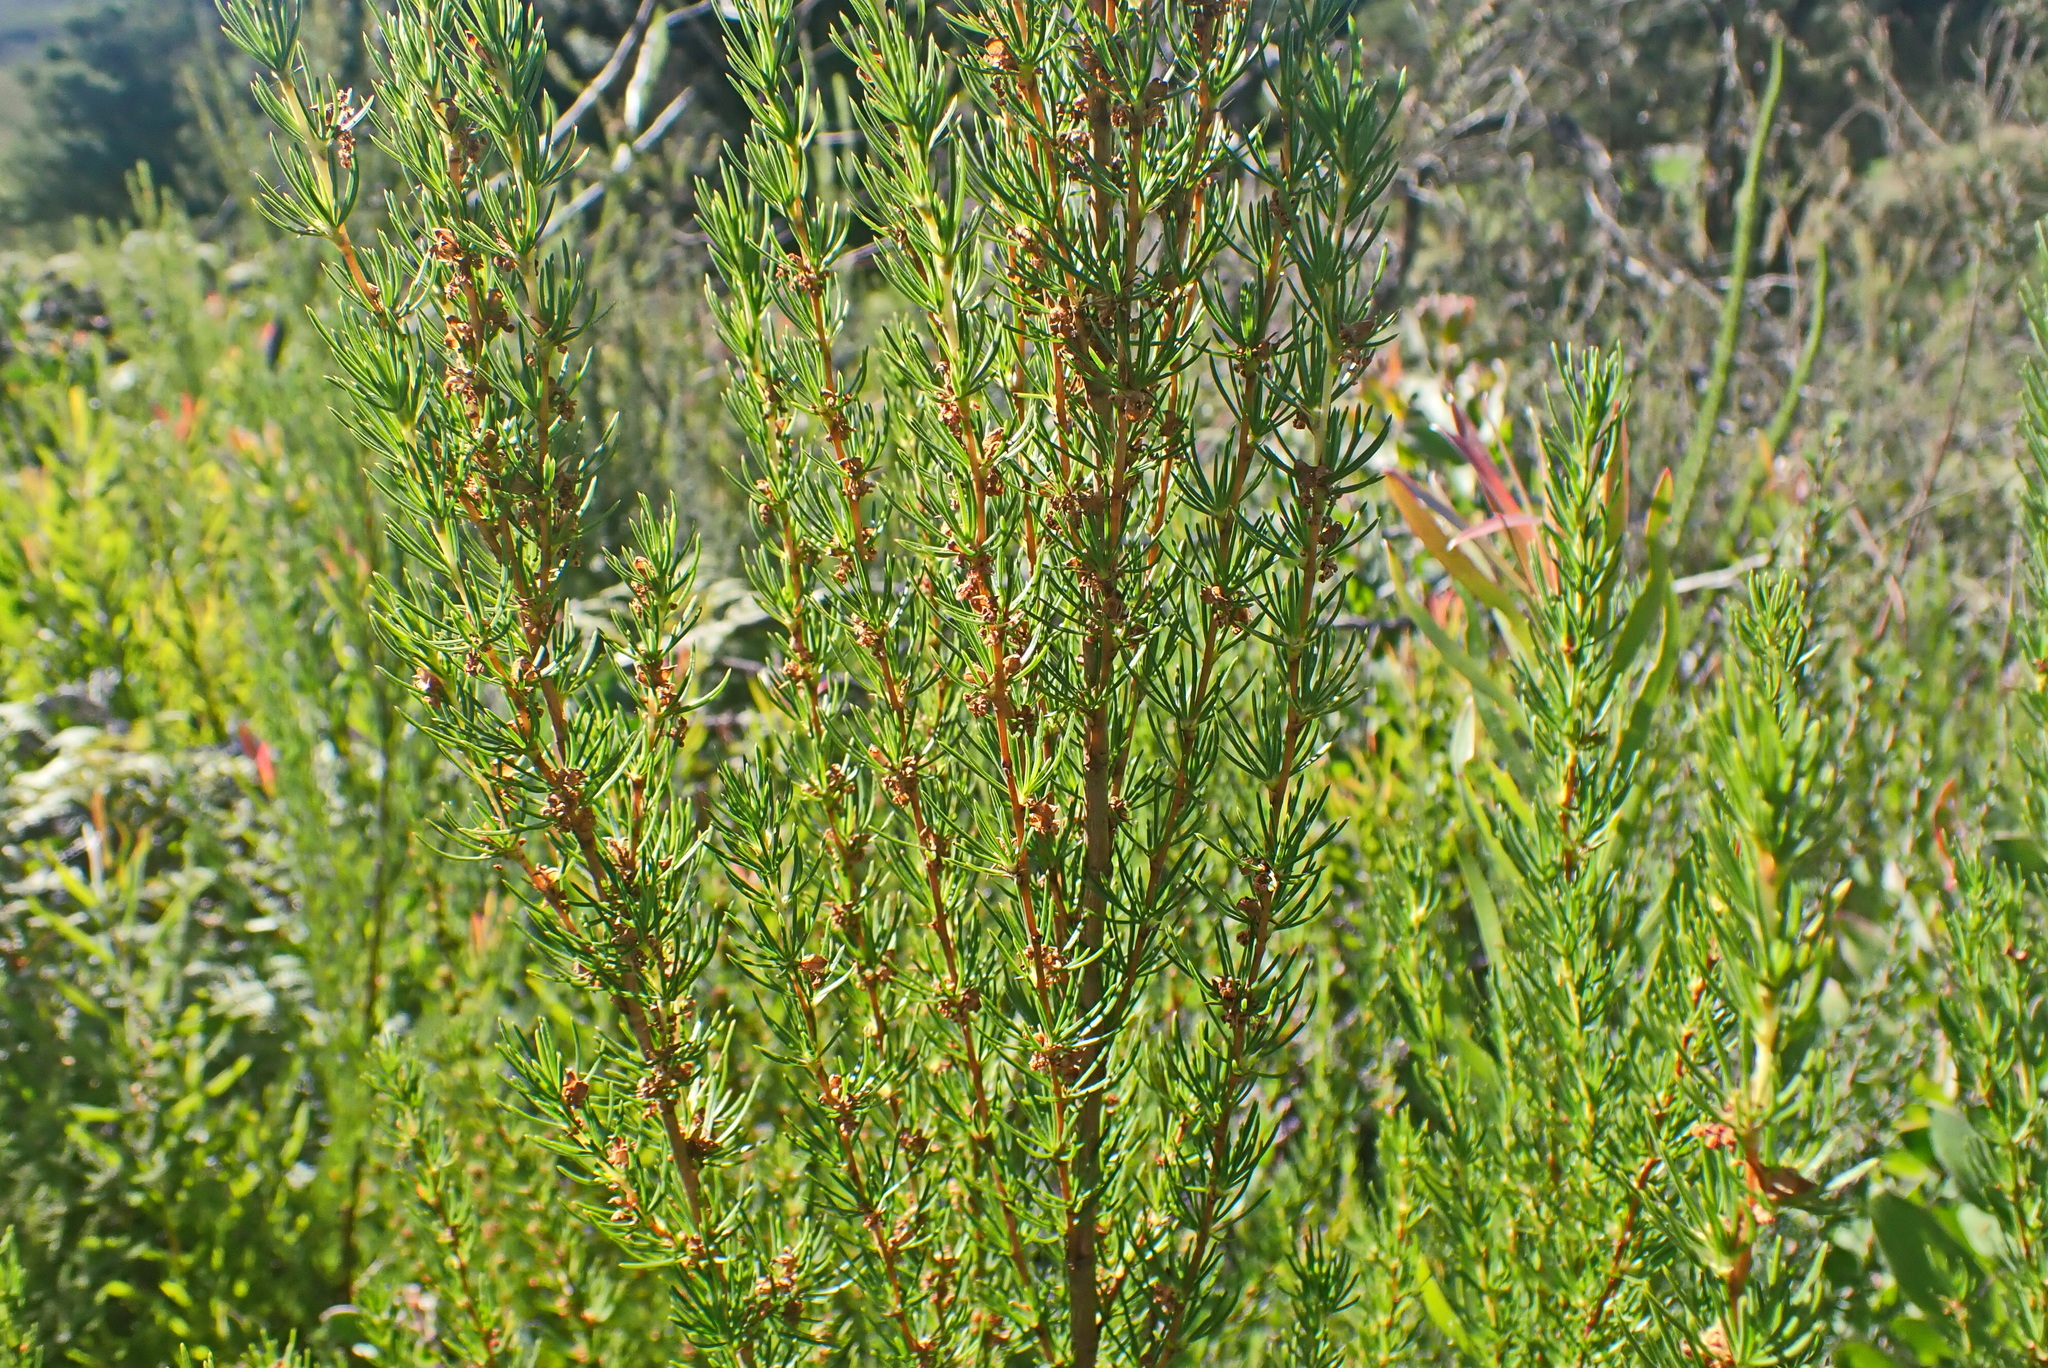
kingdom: Plantae
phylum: Tracheophyta
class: Magnoliopsida
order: Rosales
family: Rosaceae
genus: Cliffortia
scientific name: Cliffortia burchellii
